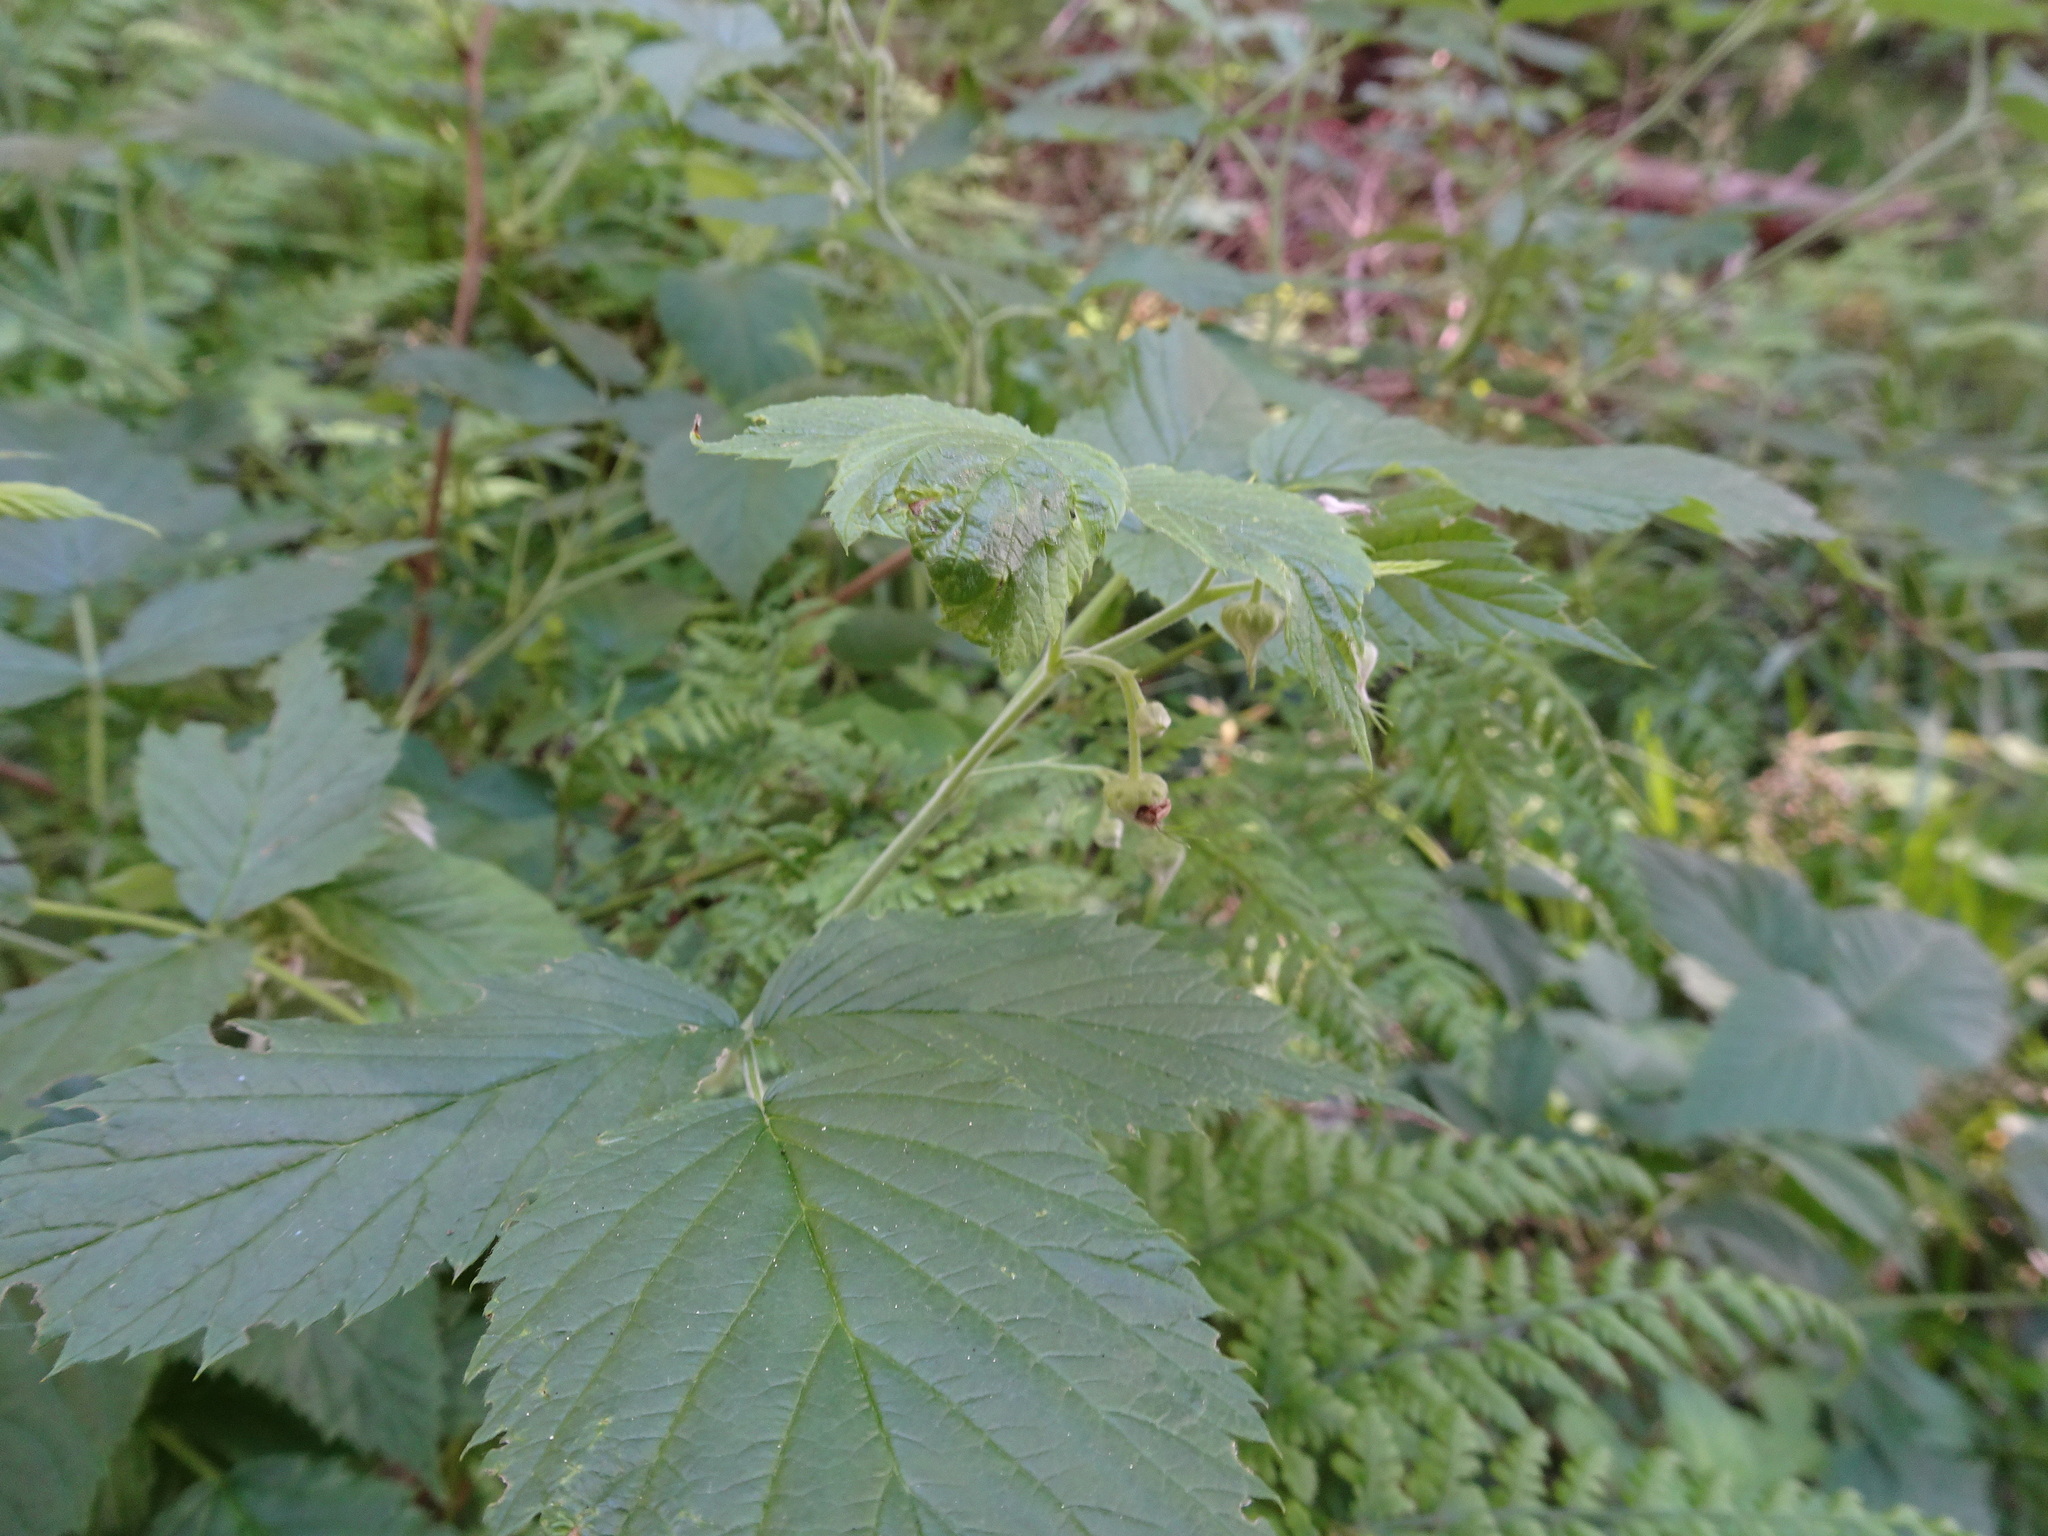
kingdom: Plantae
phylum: Tracheophyta
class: Magnoliopsida
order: Rosales
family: Rosaceae
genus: Rubus
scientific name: Rubus idaeus
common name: Raspberry
